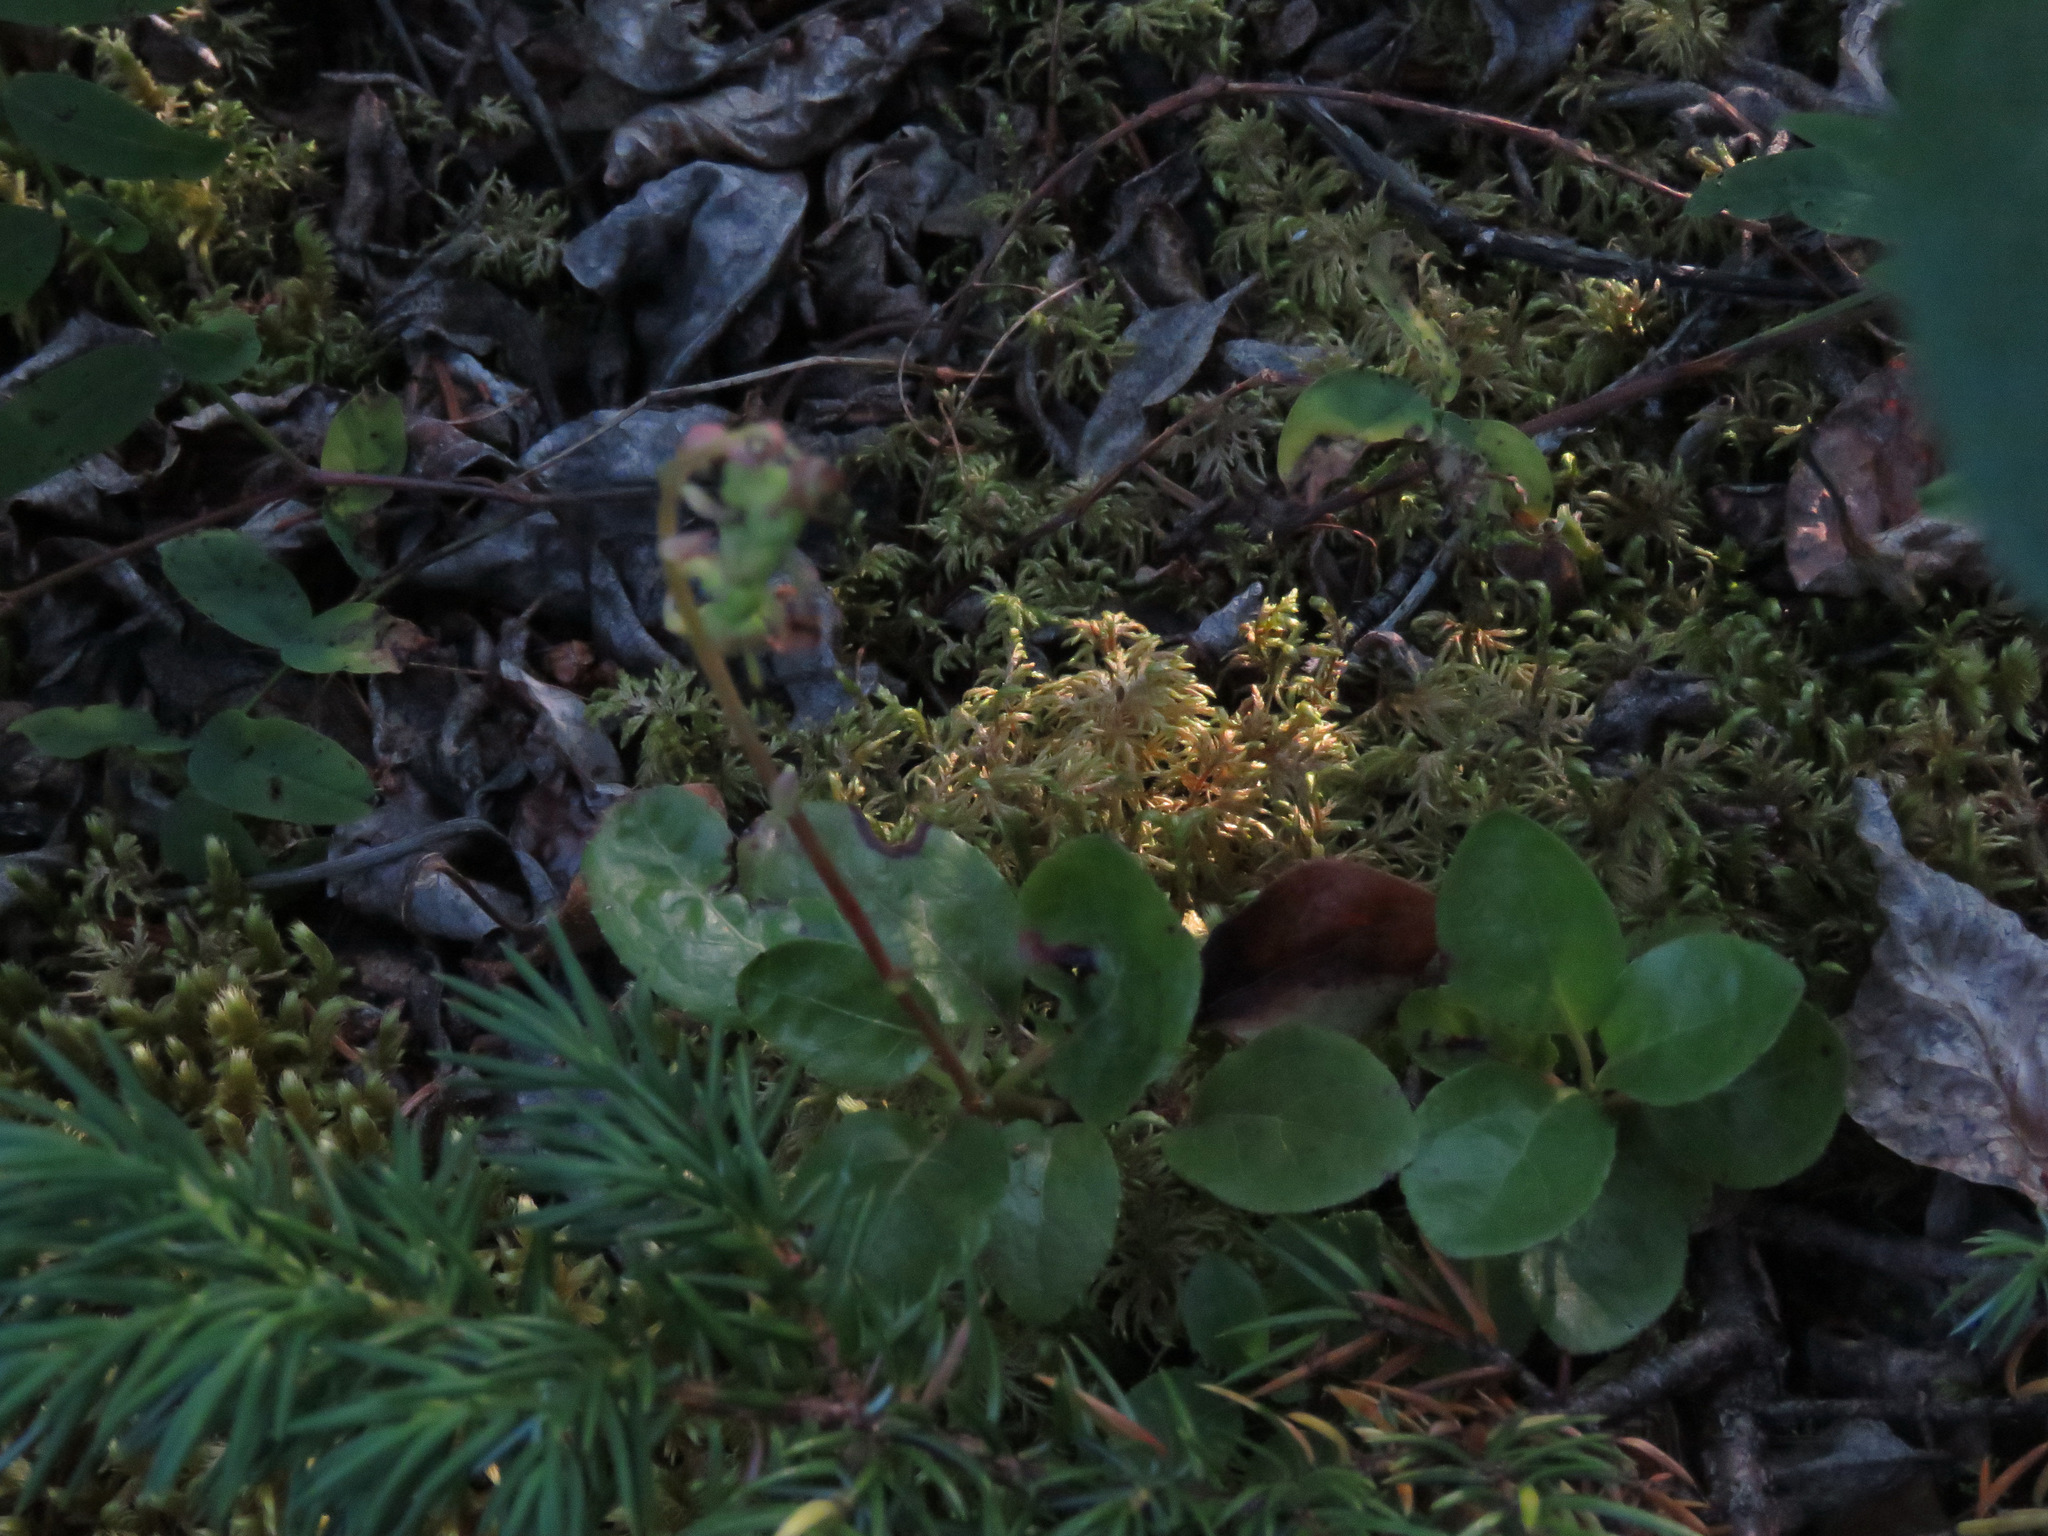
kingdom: Plantae
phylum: Tracheophyta
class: Magnoliopsida
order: Ericales
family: Ericaceae
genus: Orthilia
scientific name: Orthilia secunda
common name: One-sided orthilia
